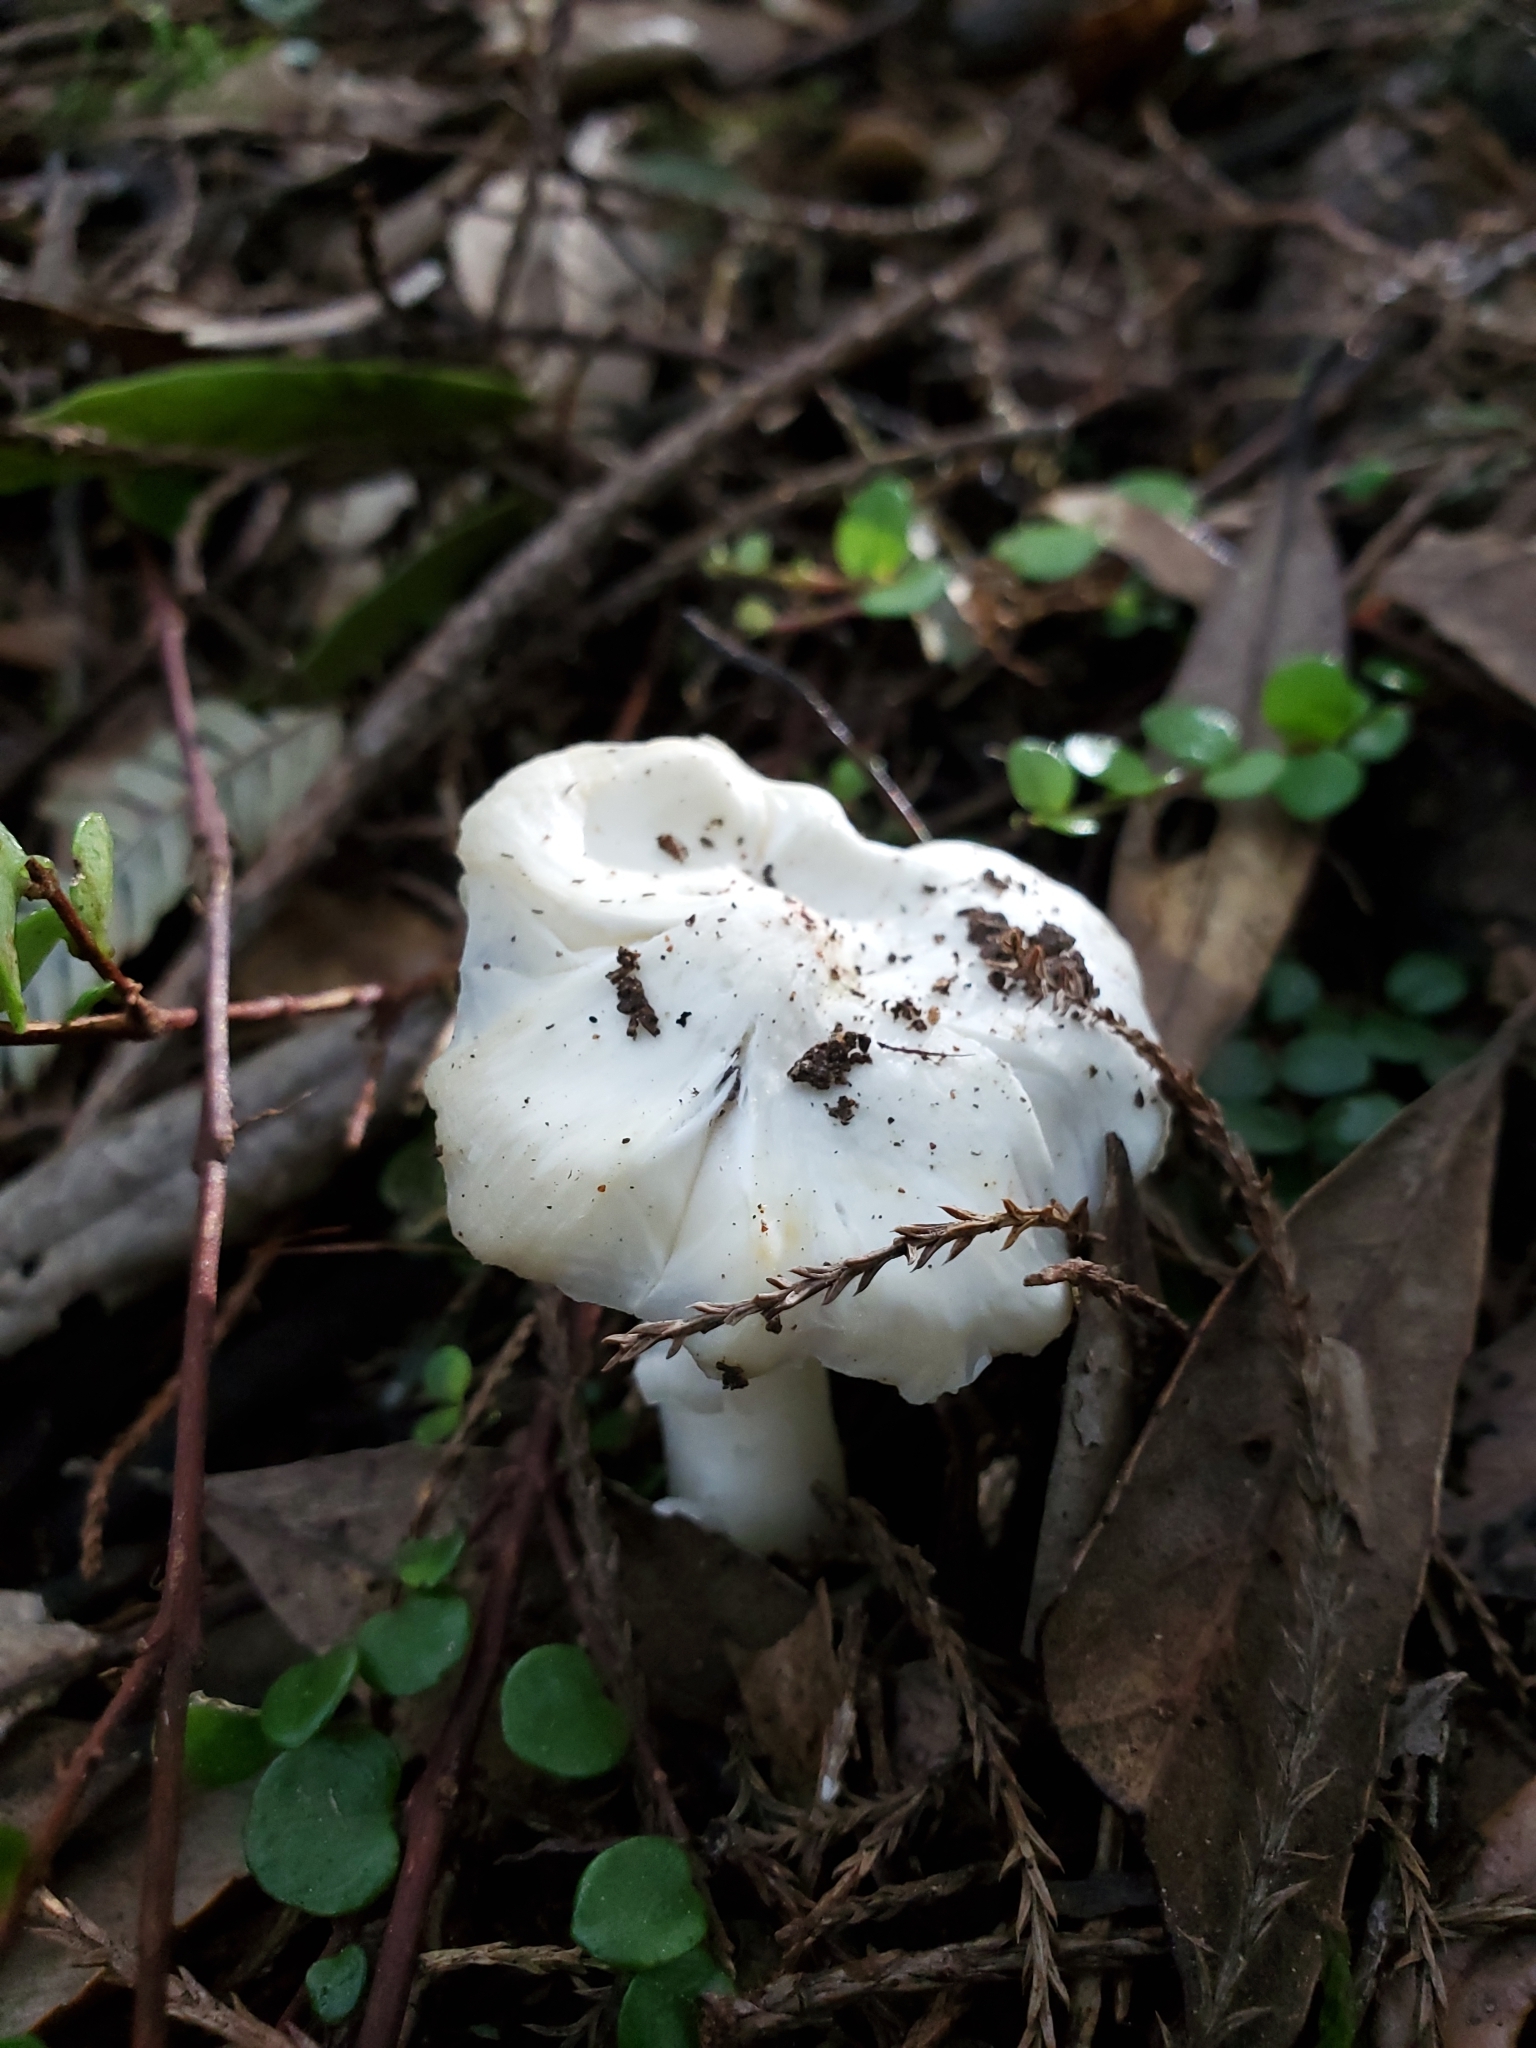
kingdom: Fungi
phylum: Basidiomycota
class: Agaricomycetes
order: Agaricales
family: Hygrophoraceae
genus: Humidicutis
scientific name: Humidicutis mavis
